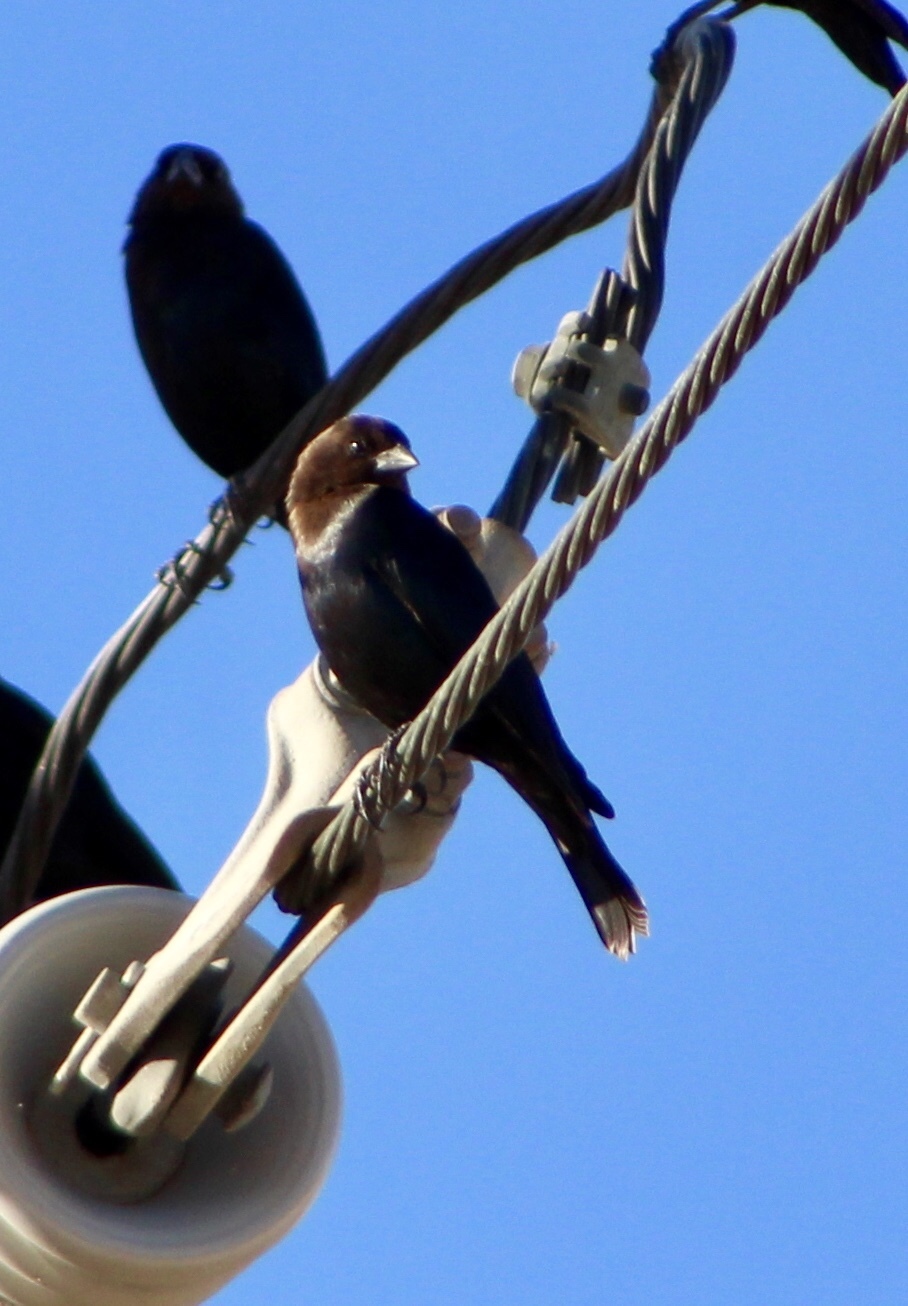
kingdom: Animalia
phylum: Chordata
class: Aves
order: Passeriformes
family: Icteridae
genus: Molothrus
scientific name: Molothrus ater
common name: Brown-headed cowbird
